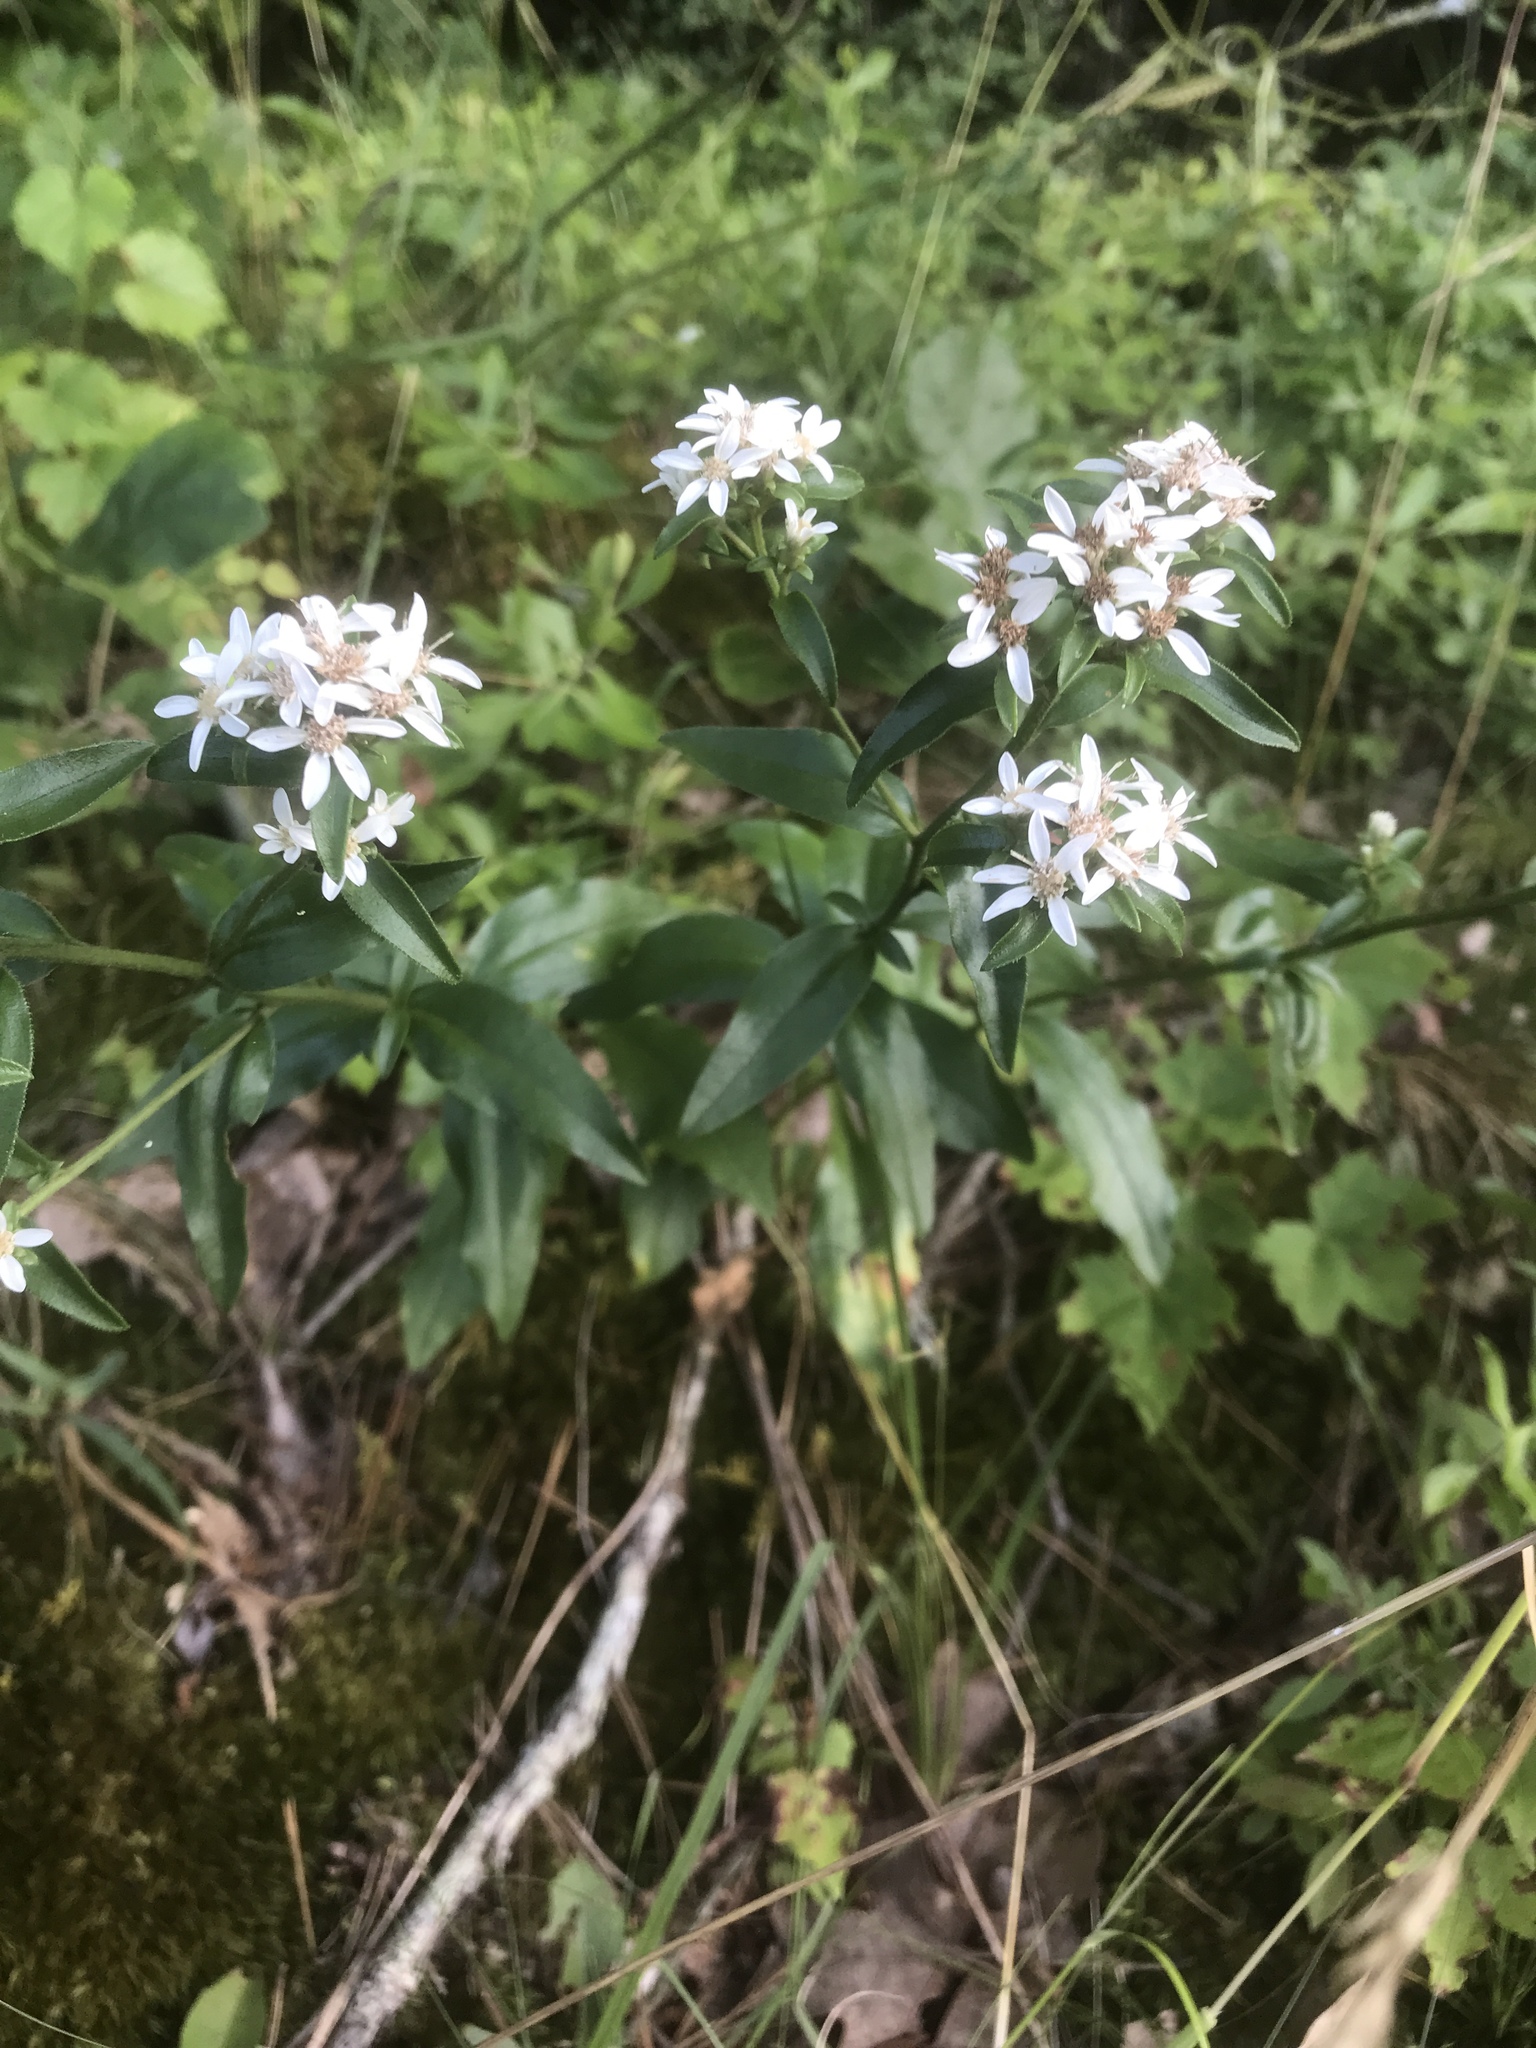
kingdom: Plantae
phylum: Tracheophyta
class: Magnoliopsida
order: Asterales
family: Asteraceae
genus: Sericocarpus
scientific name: Sericocarpus asteroides
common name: Toothed white-top aster
